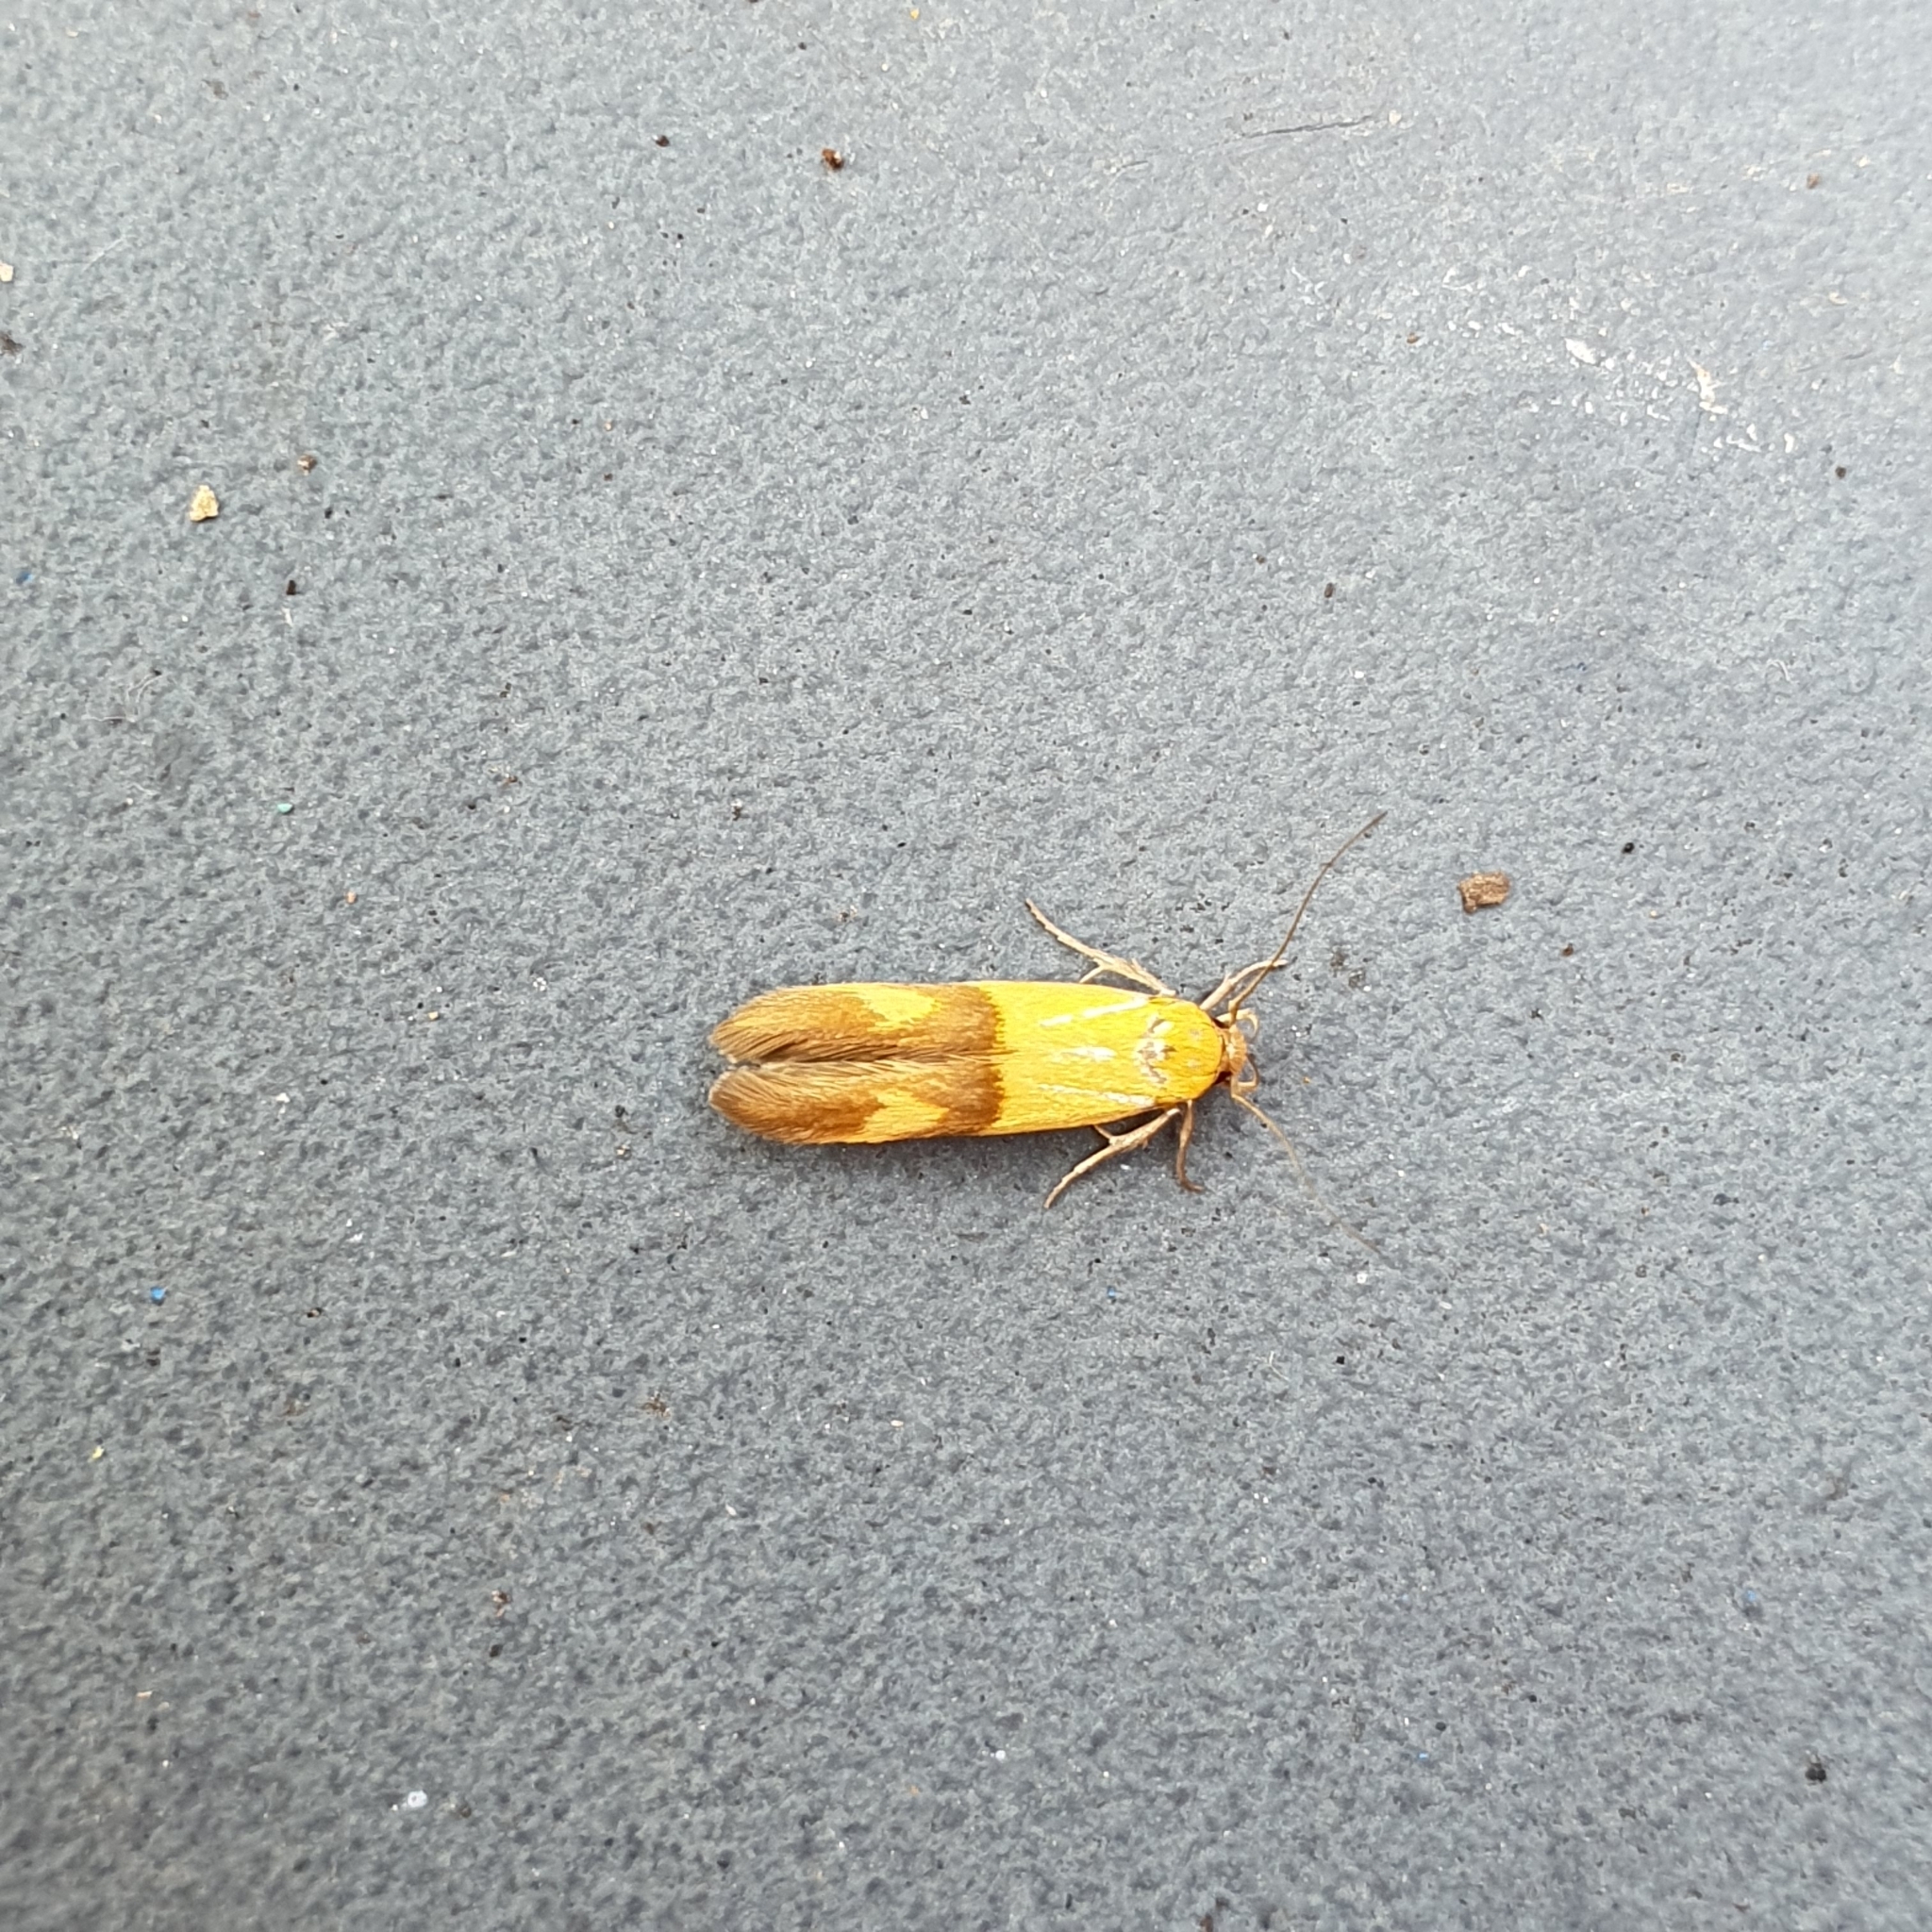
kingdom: Animalia
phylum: Arthropoda
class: Insecta
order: Lepidoptera
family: Stathmopodidae
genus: Stathmopoda
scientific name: Stathmopoda auriferella
